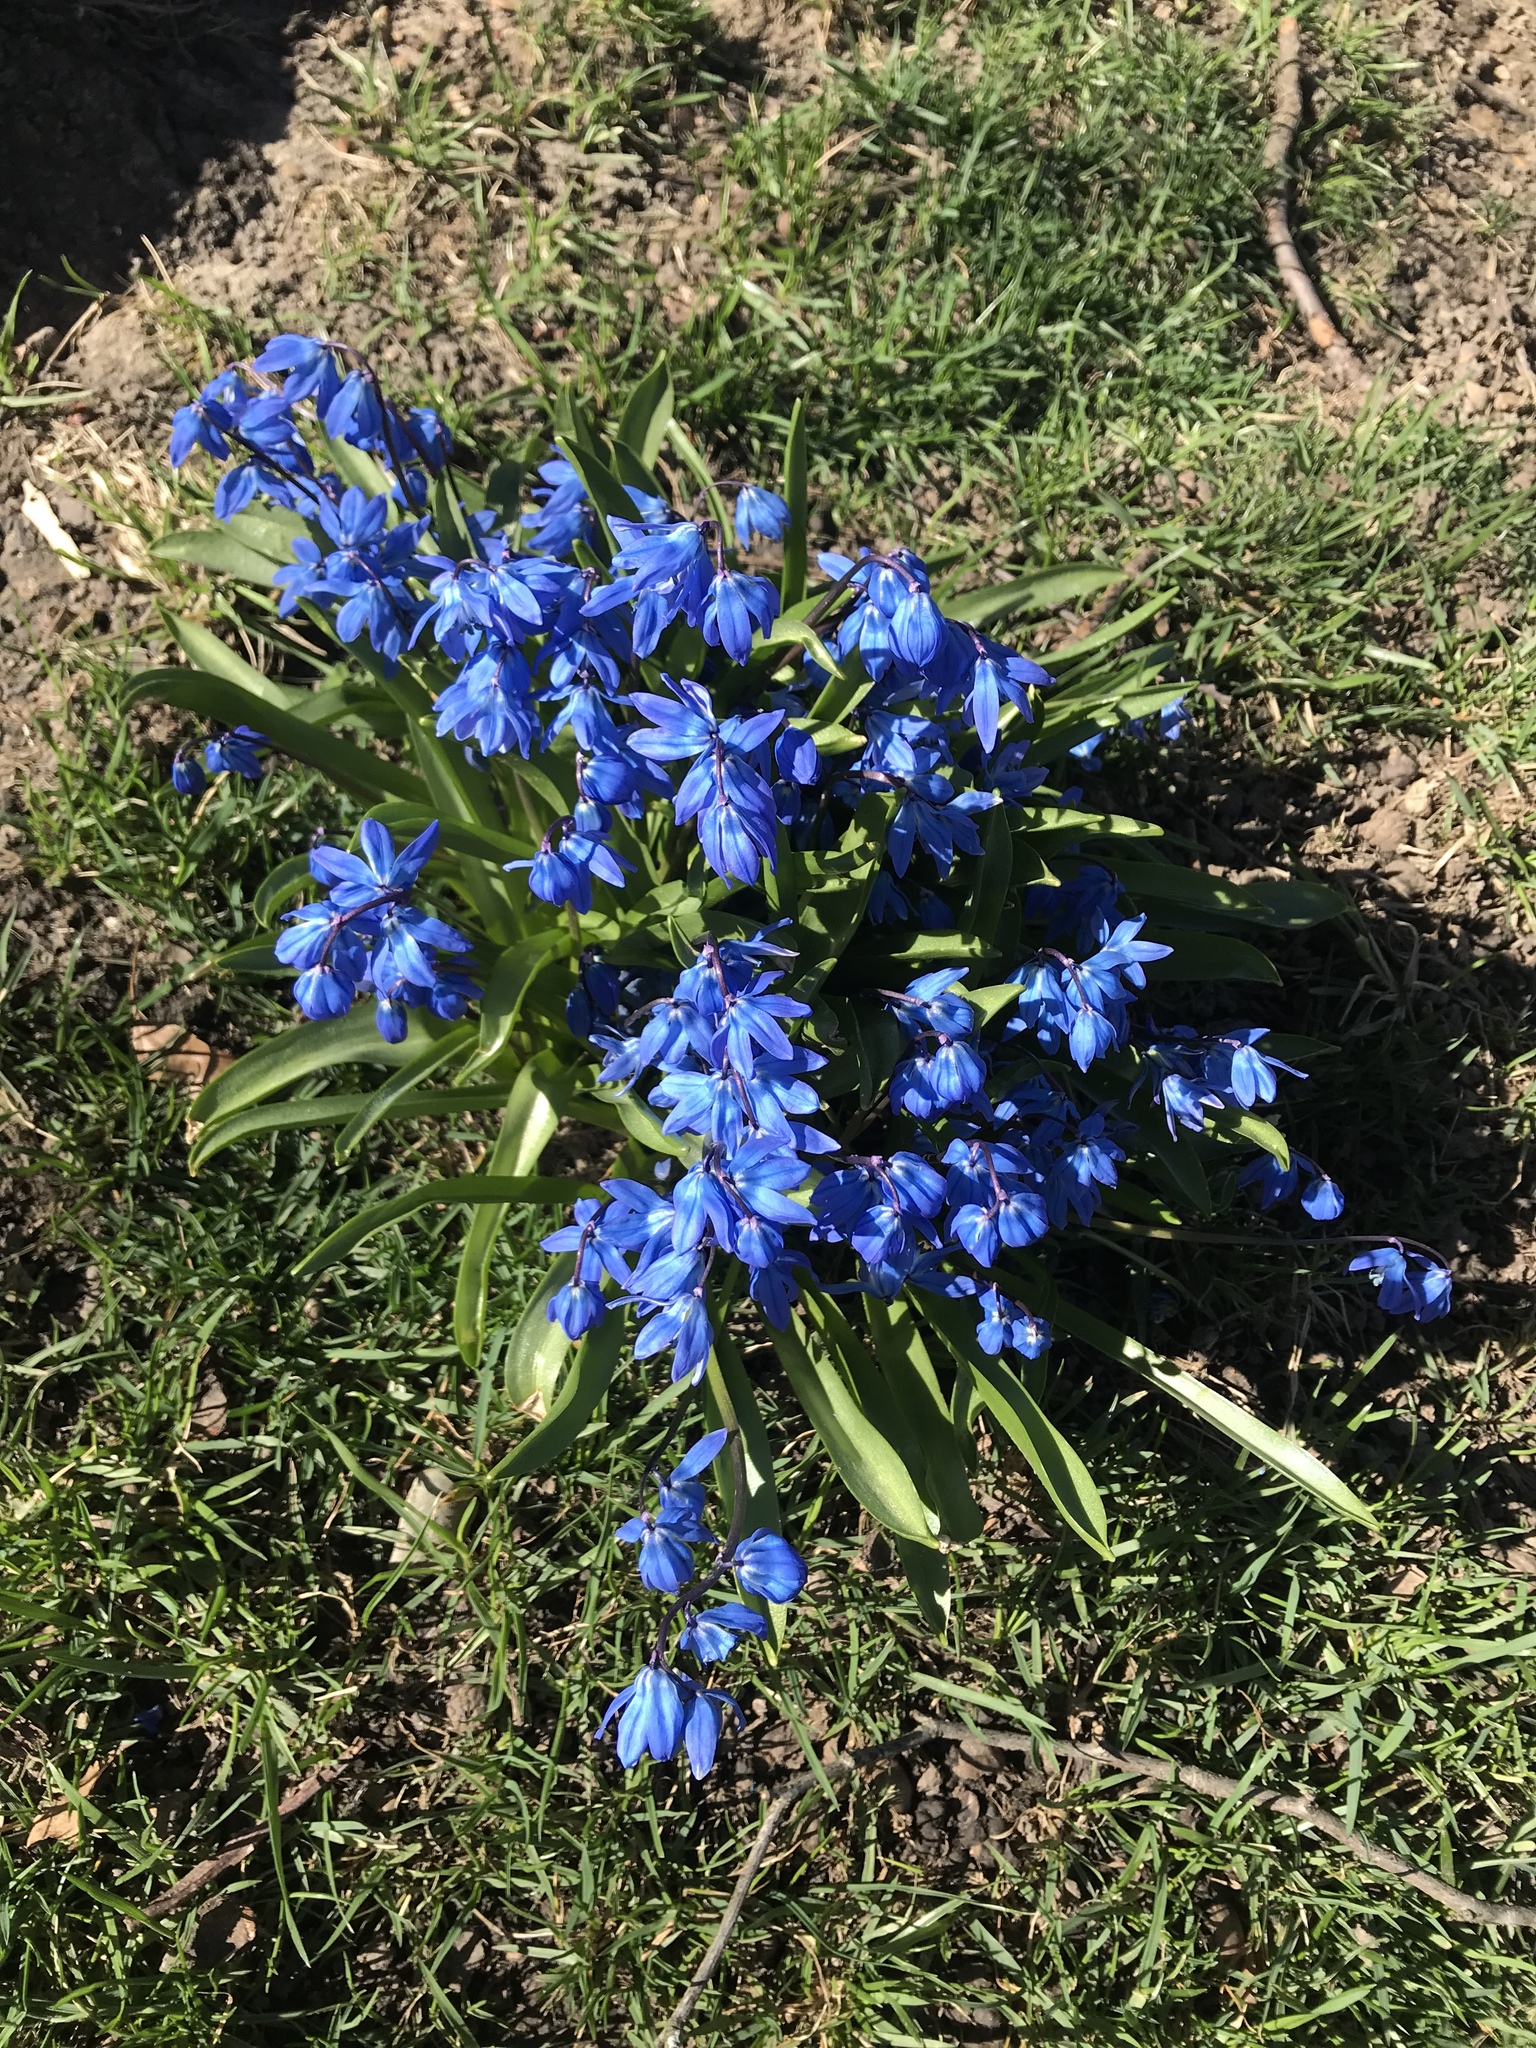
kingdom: Plantae
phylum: Tracheophyta
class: Liliopsida
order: Asparagales
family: Asparagaceae
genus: Scilla
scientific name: Scilla siberica
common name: Siberian squill
